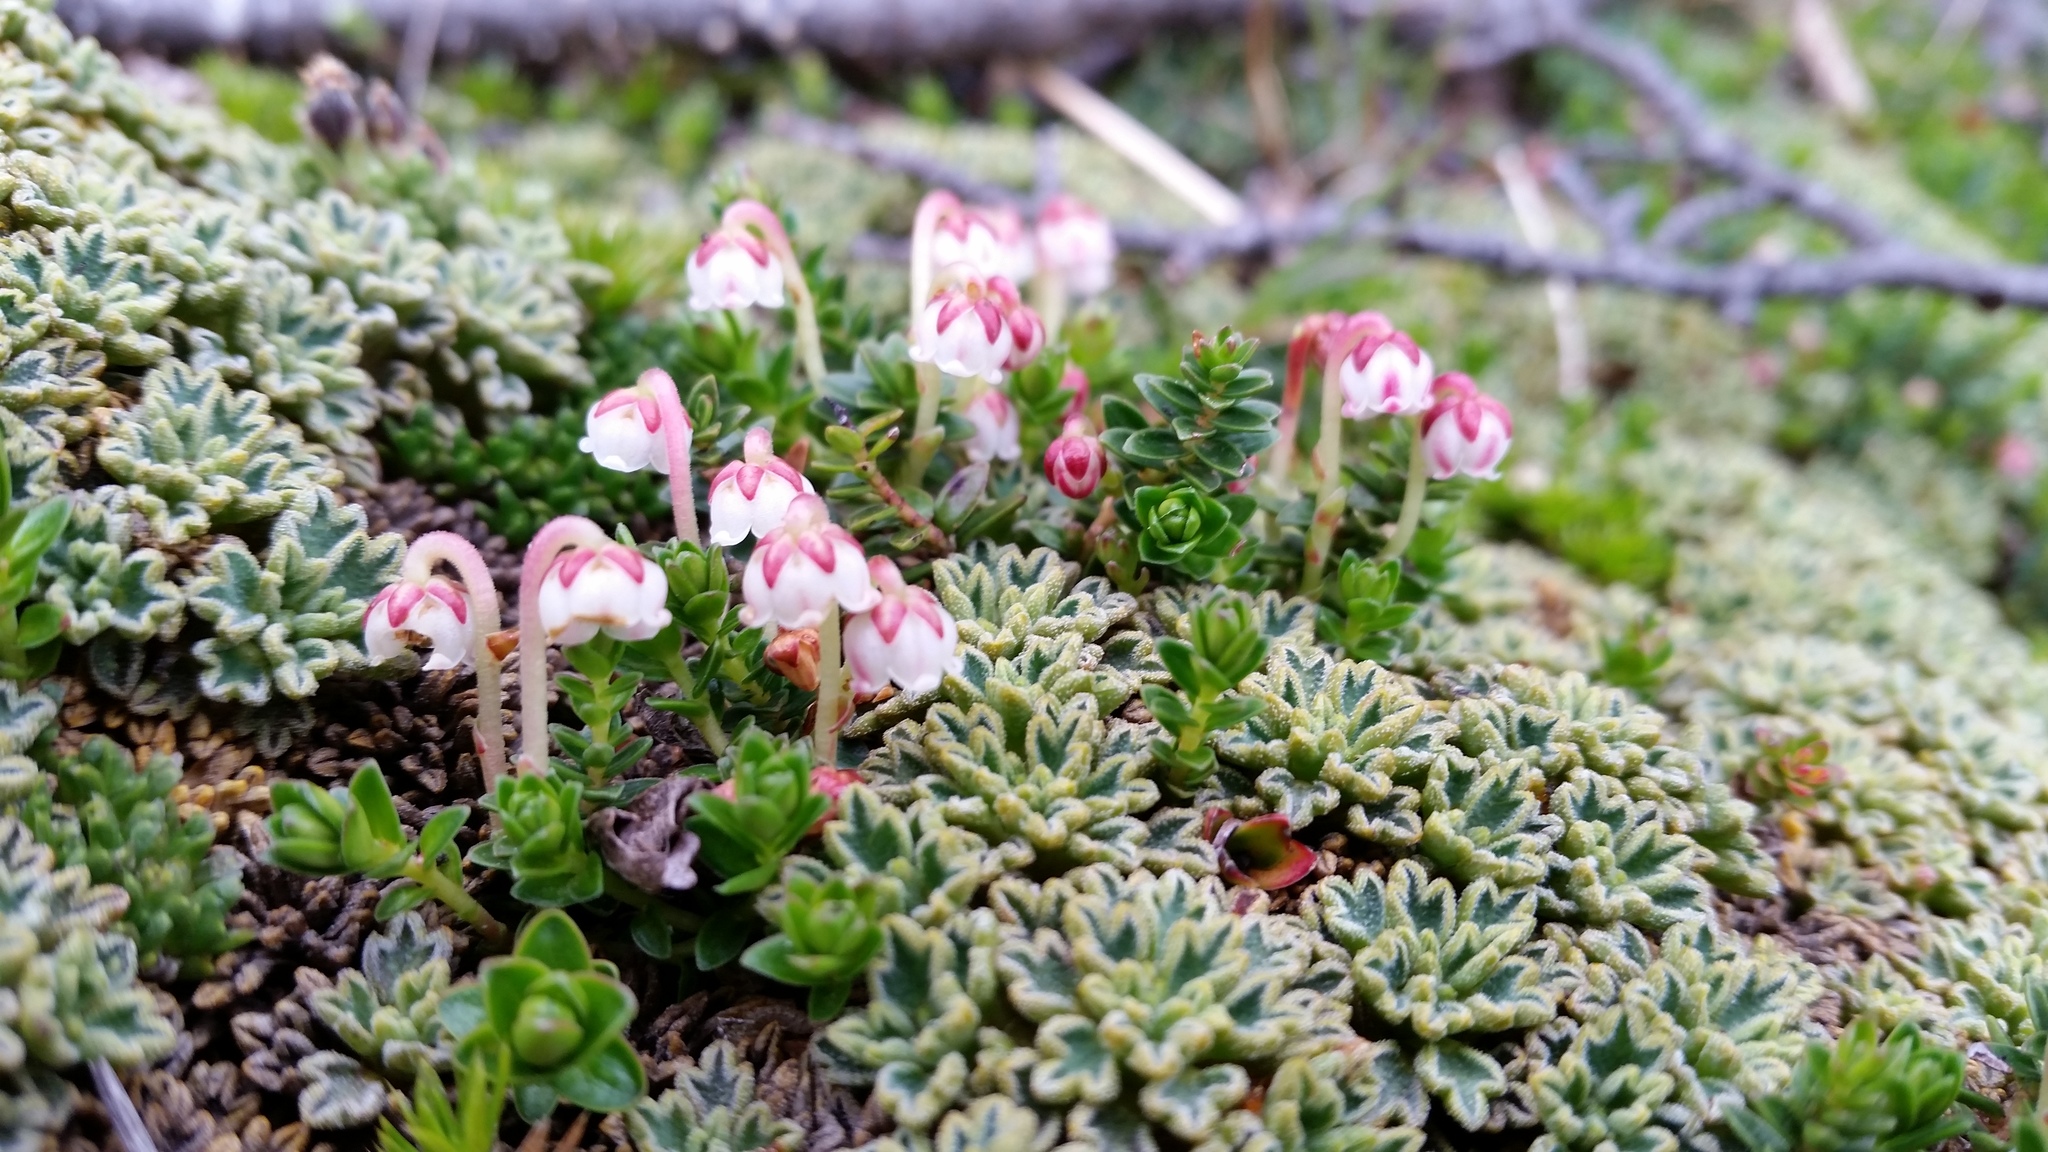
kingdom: Plantae
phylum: Tracheophyta
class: Magnoliopsida
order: Ericales
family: Ericaceae
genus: Gaultheria
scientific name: Gaultheria pumila
